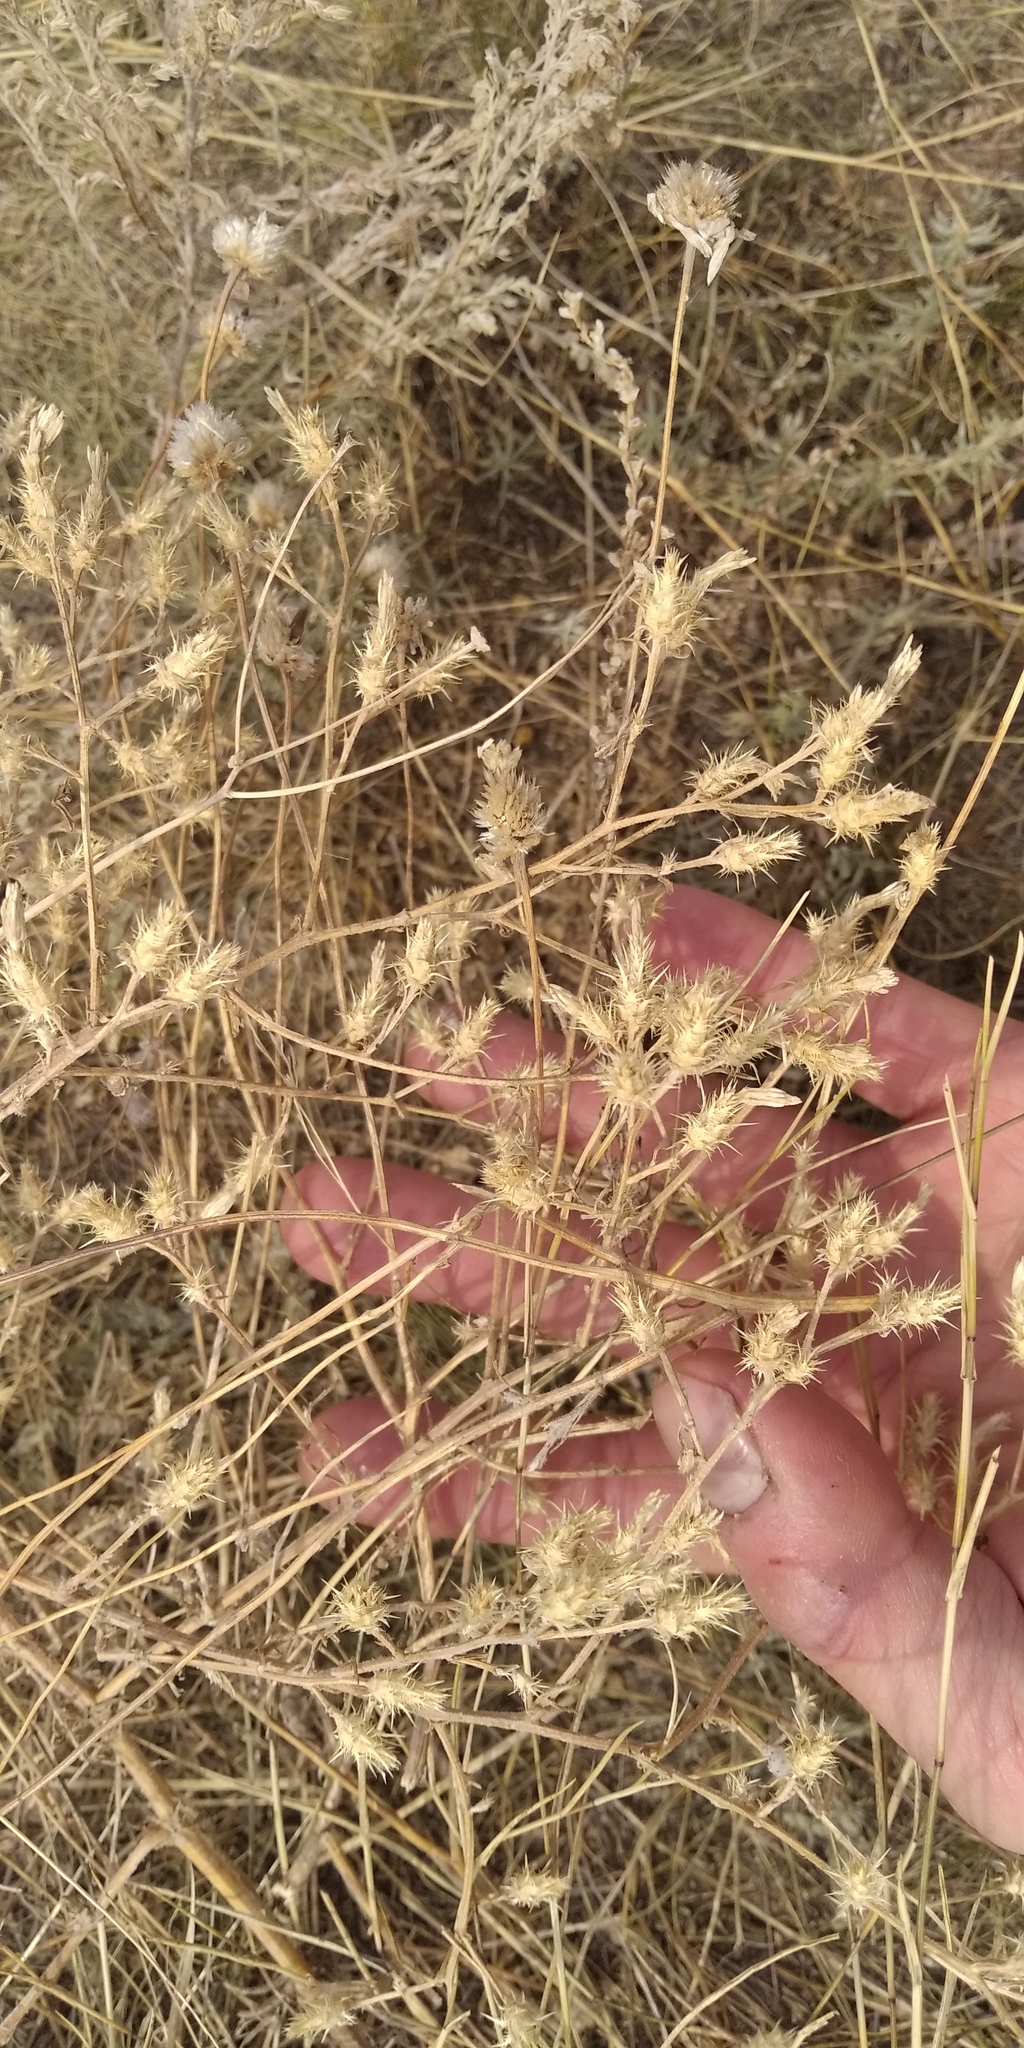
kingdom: Plantae
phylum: Tracheophyta
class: Magnoliopsida
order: Asterales
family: Asteraceae
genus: Centaurea
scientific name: Centaurea diffusa
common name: Diffuse knapweed
